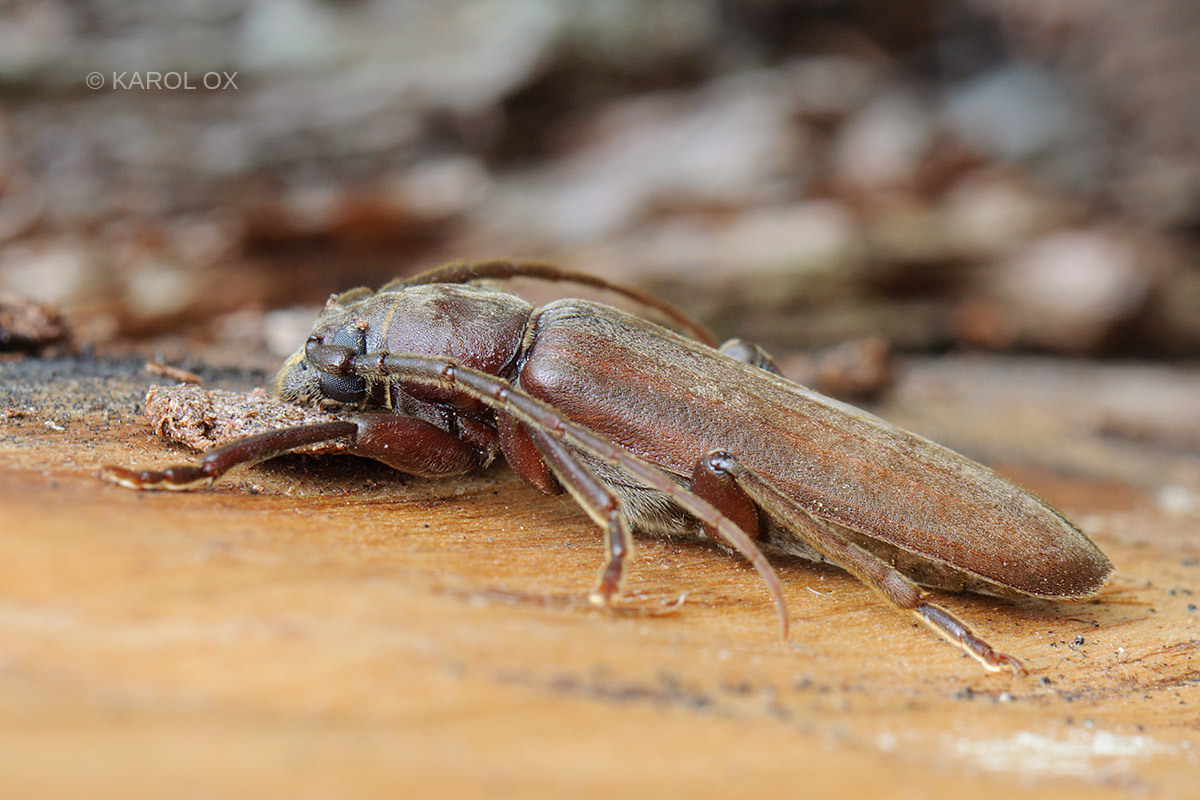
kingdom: Animalia
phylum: Arthropoda
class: Insecta
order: Coleoptera
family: Cerambycidae
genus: Arhopalus
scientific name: Arhopalus rusticus
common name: Rust pine borer
